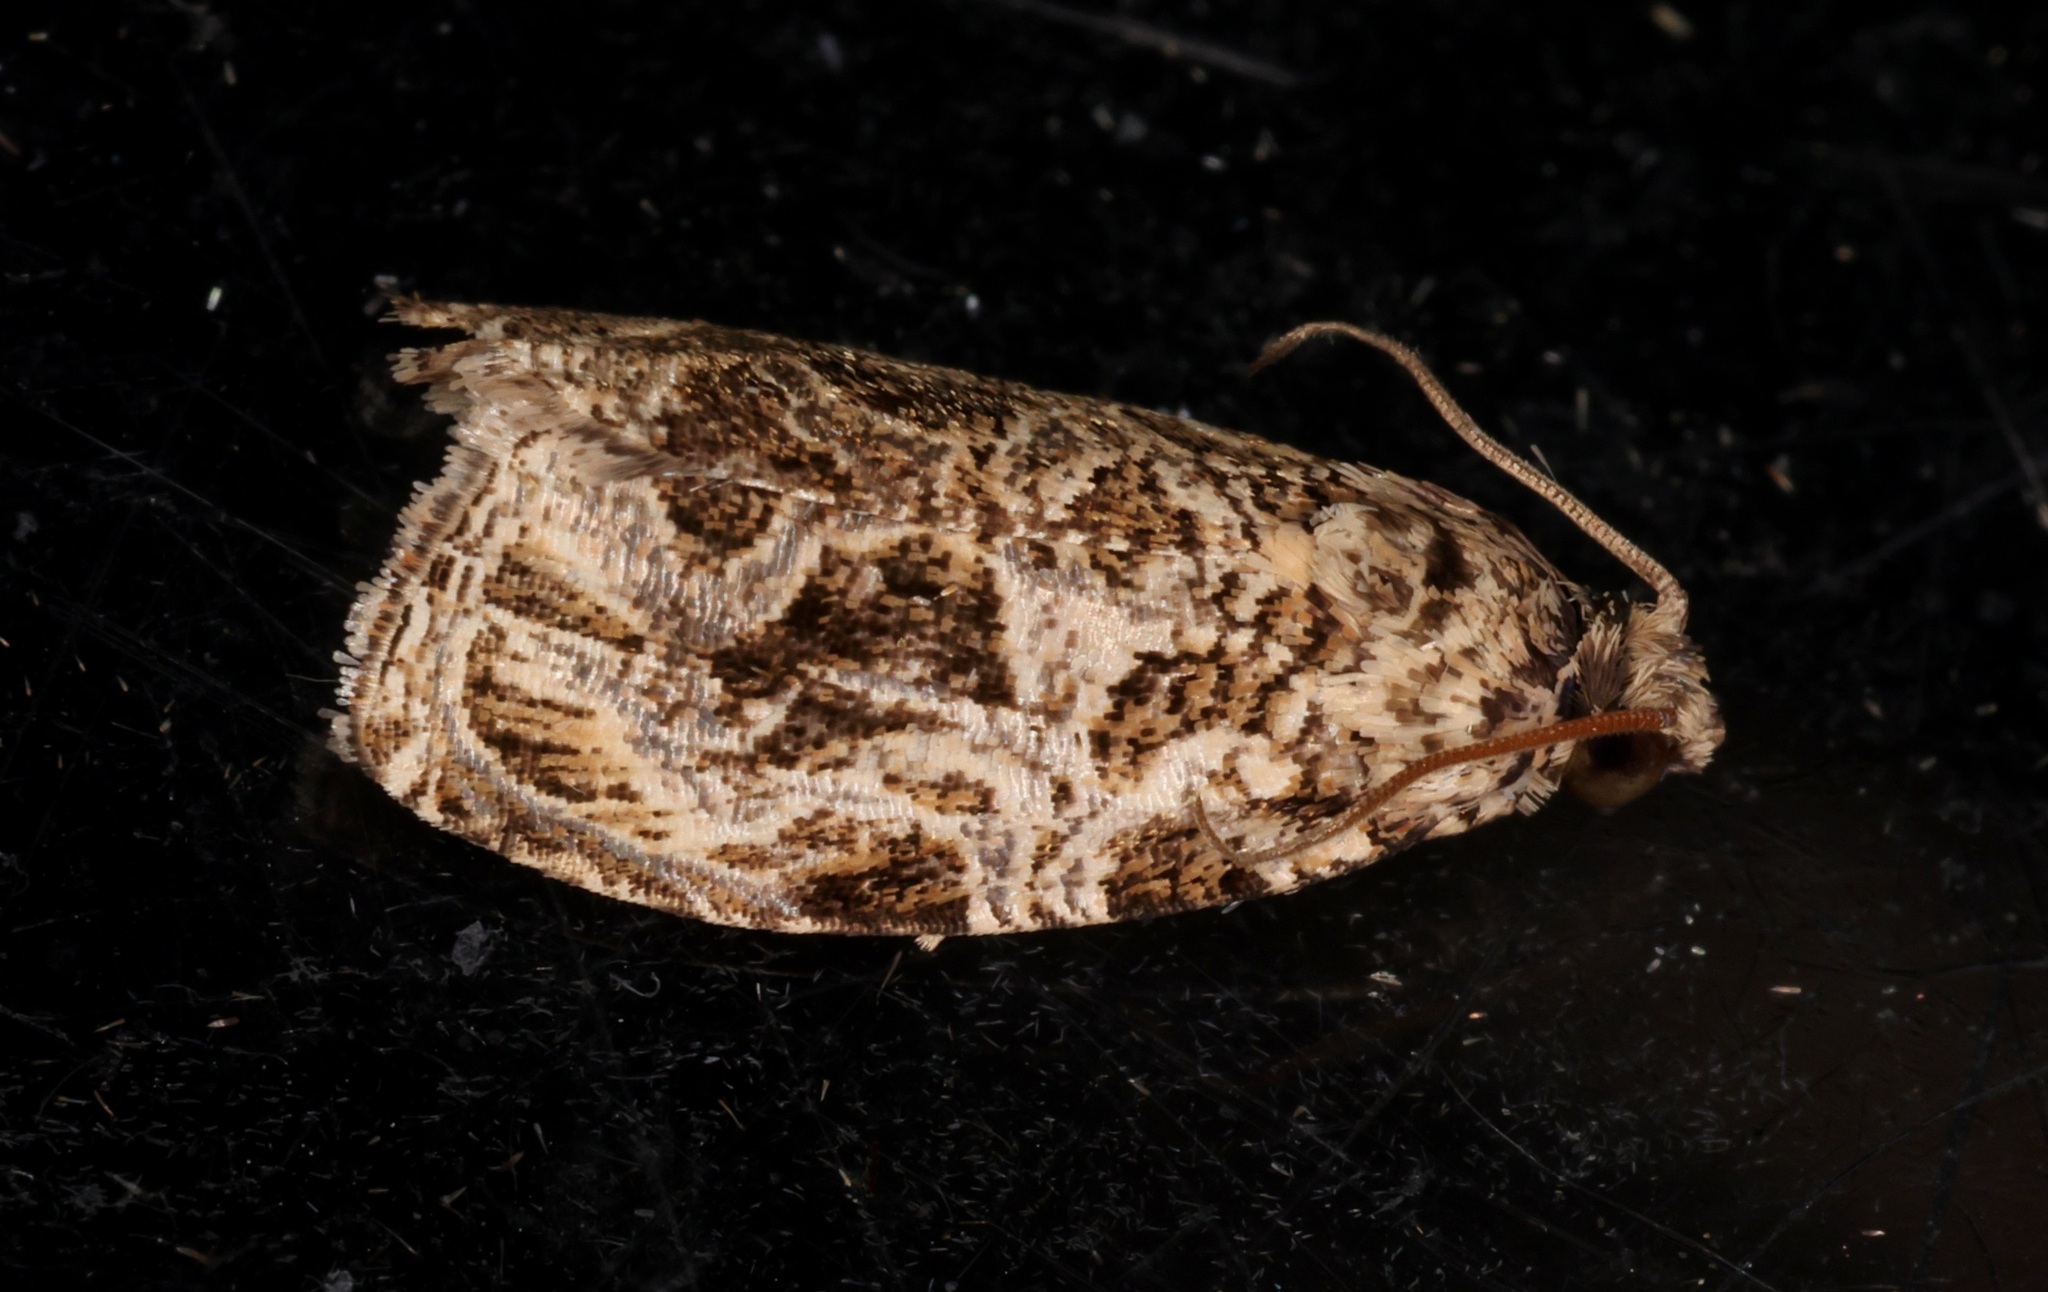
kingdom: Animalia
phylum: Arthropoda
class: Insecta
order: Lepidoptera
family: Tortricidae
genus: Phaecasiophora
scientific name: Phaecasiophora leechi
